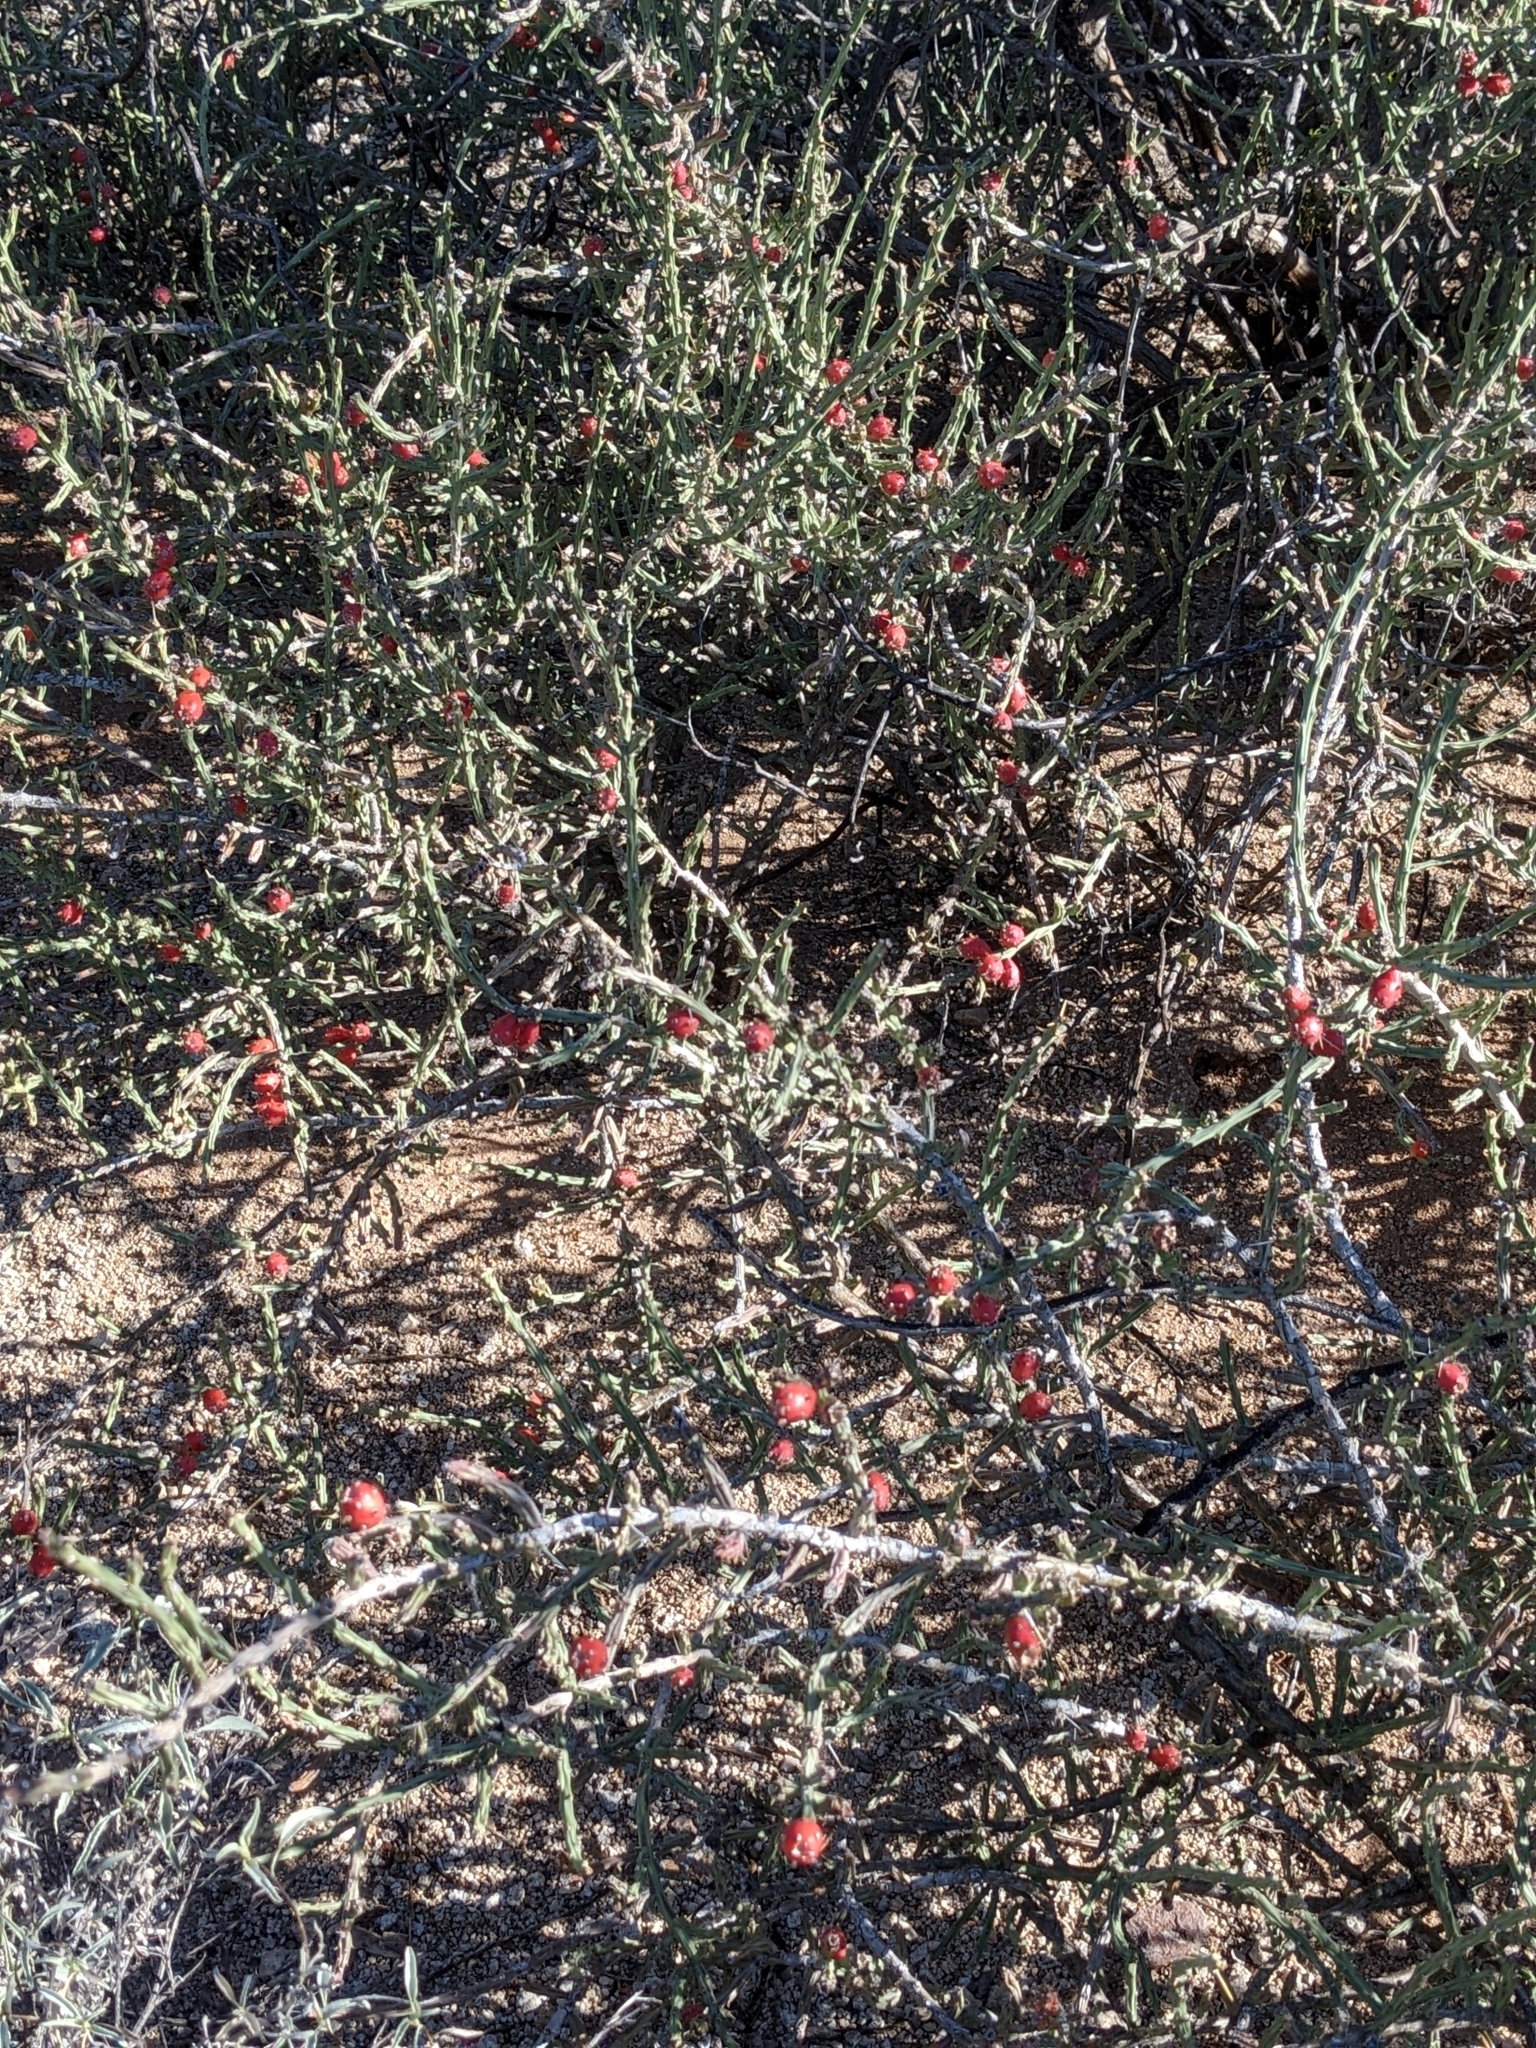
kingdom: Plantae
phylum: Tracheophyta
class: Magnoliopsida
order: Caryophyllales
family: Cactaceae
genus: Cylindropuntia
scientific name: Cylindropuntia leptocaulis
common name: Christmas cactus
